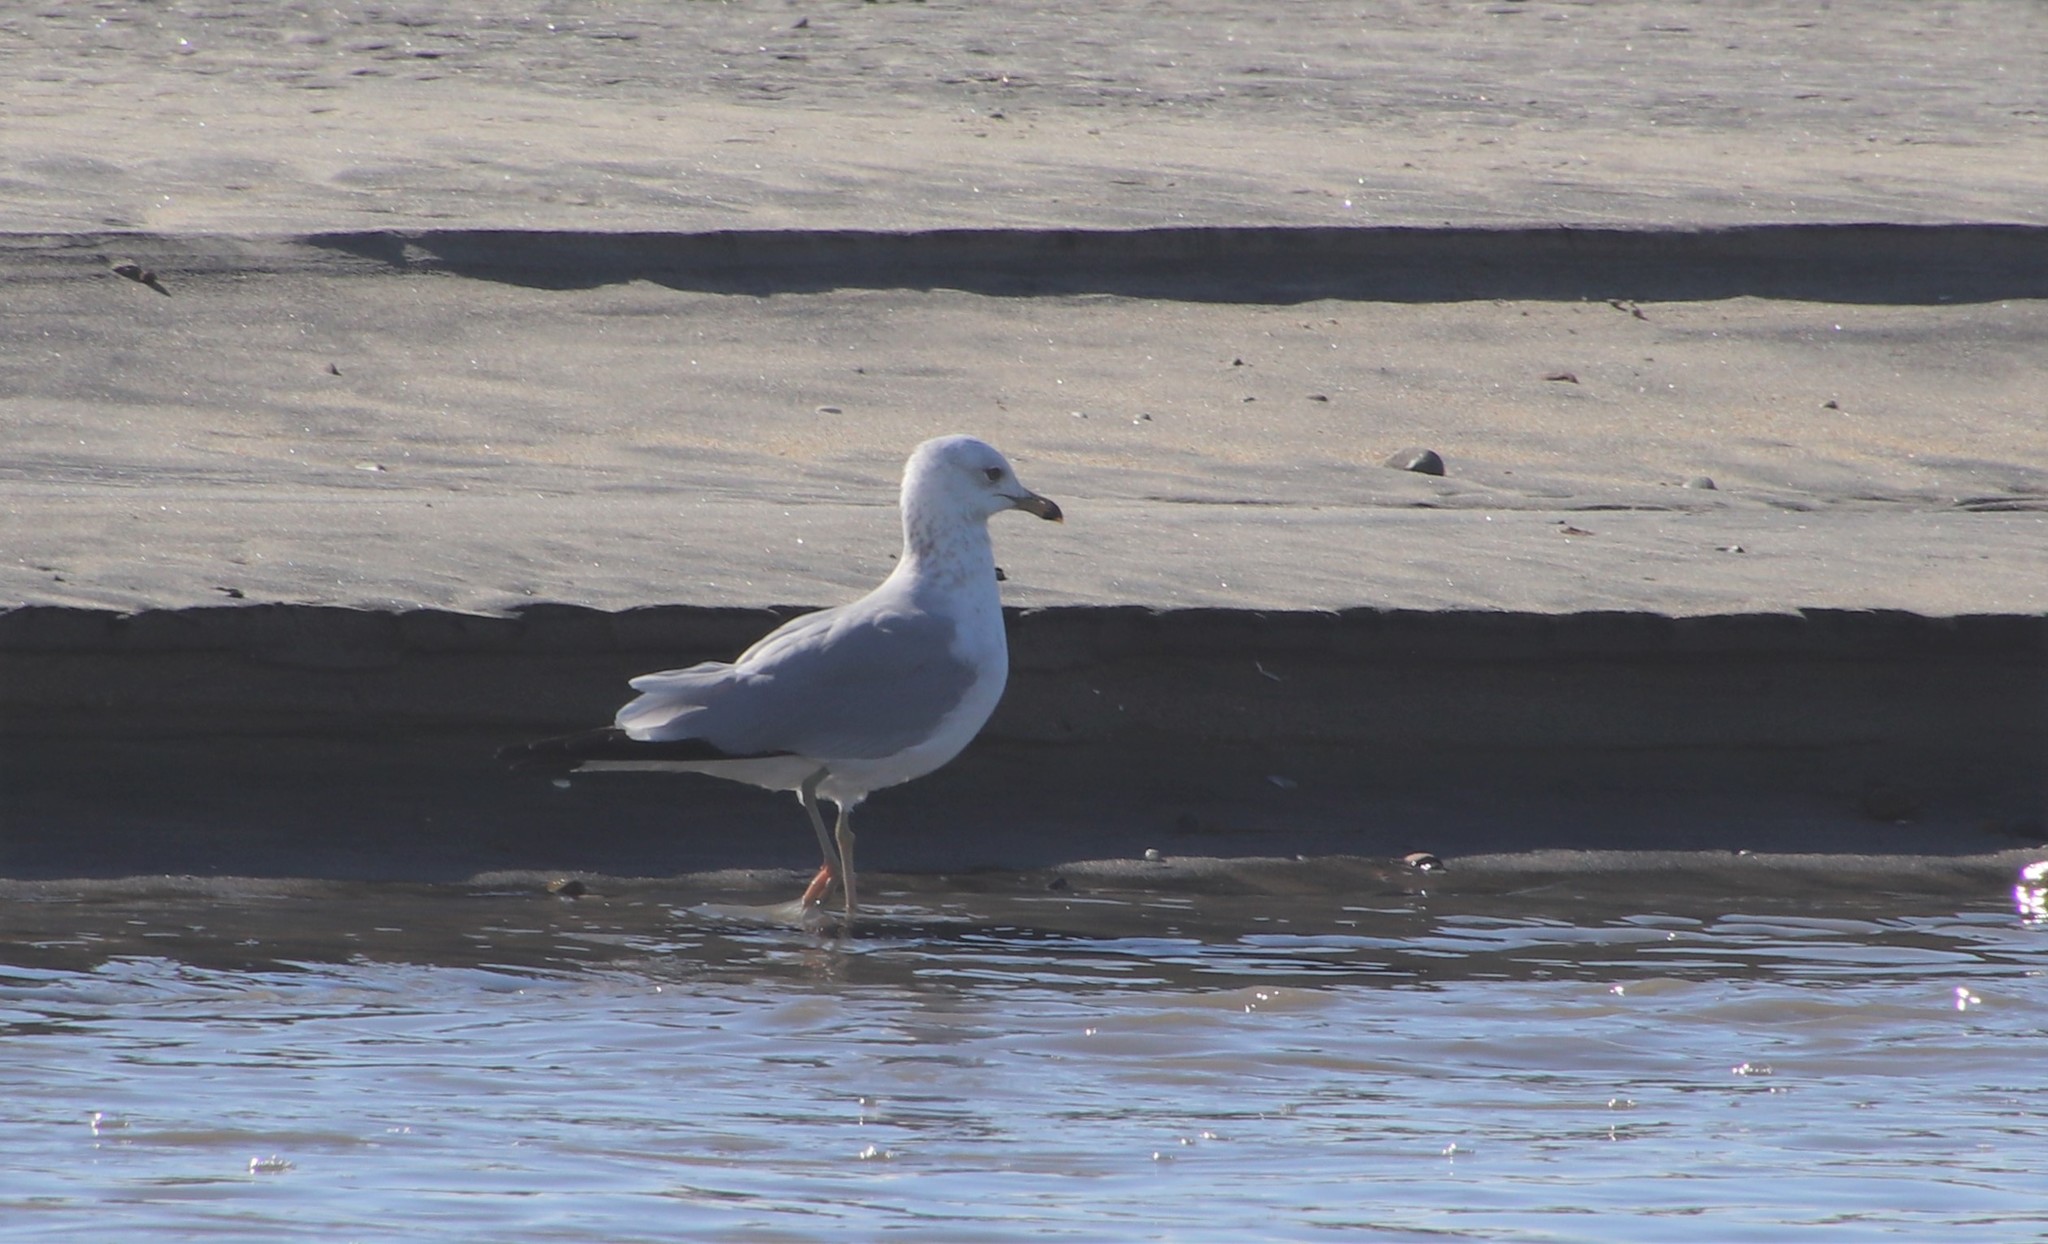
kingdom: Animalia
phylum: Chordata
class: Aves
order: Charadriiformes
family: Laridae
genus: Larus
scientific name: Larus delawarensis
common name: Ring-billed gull
